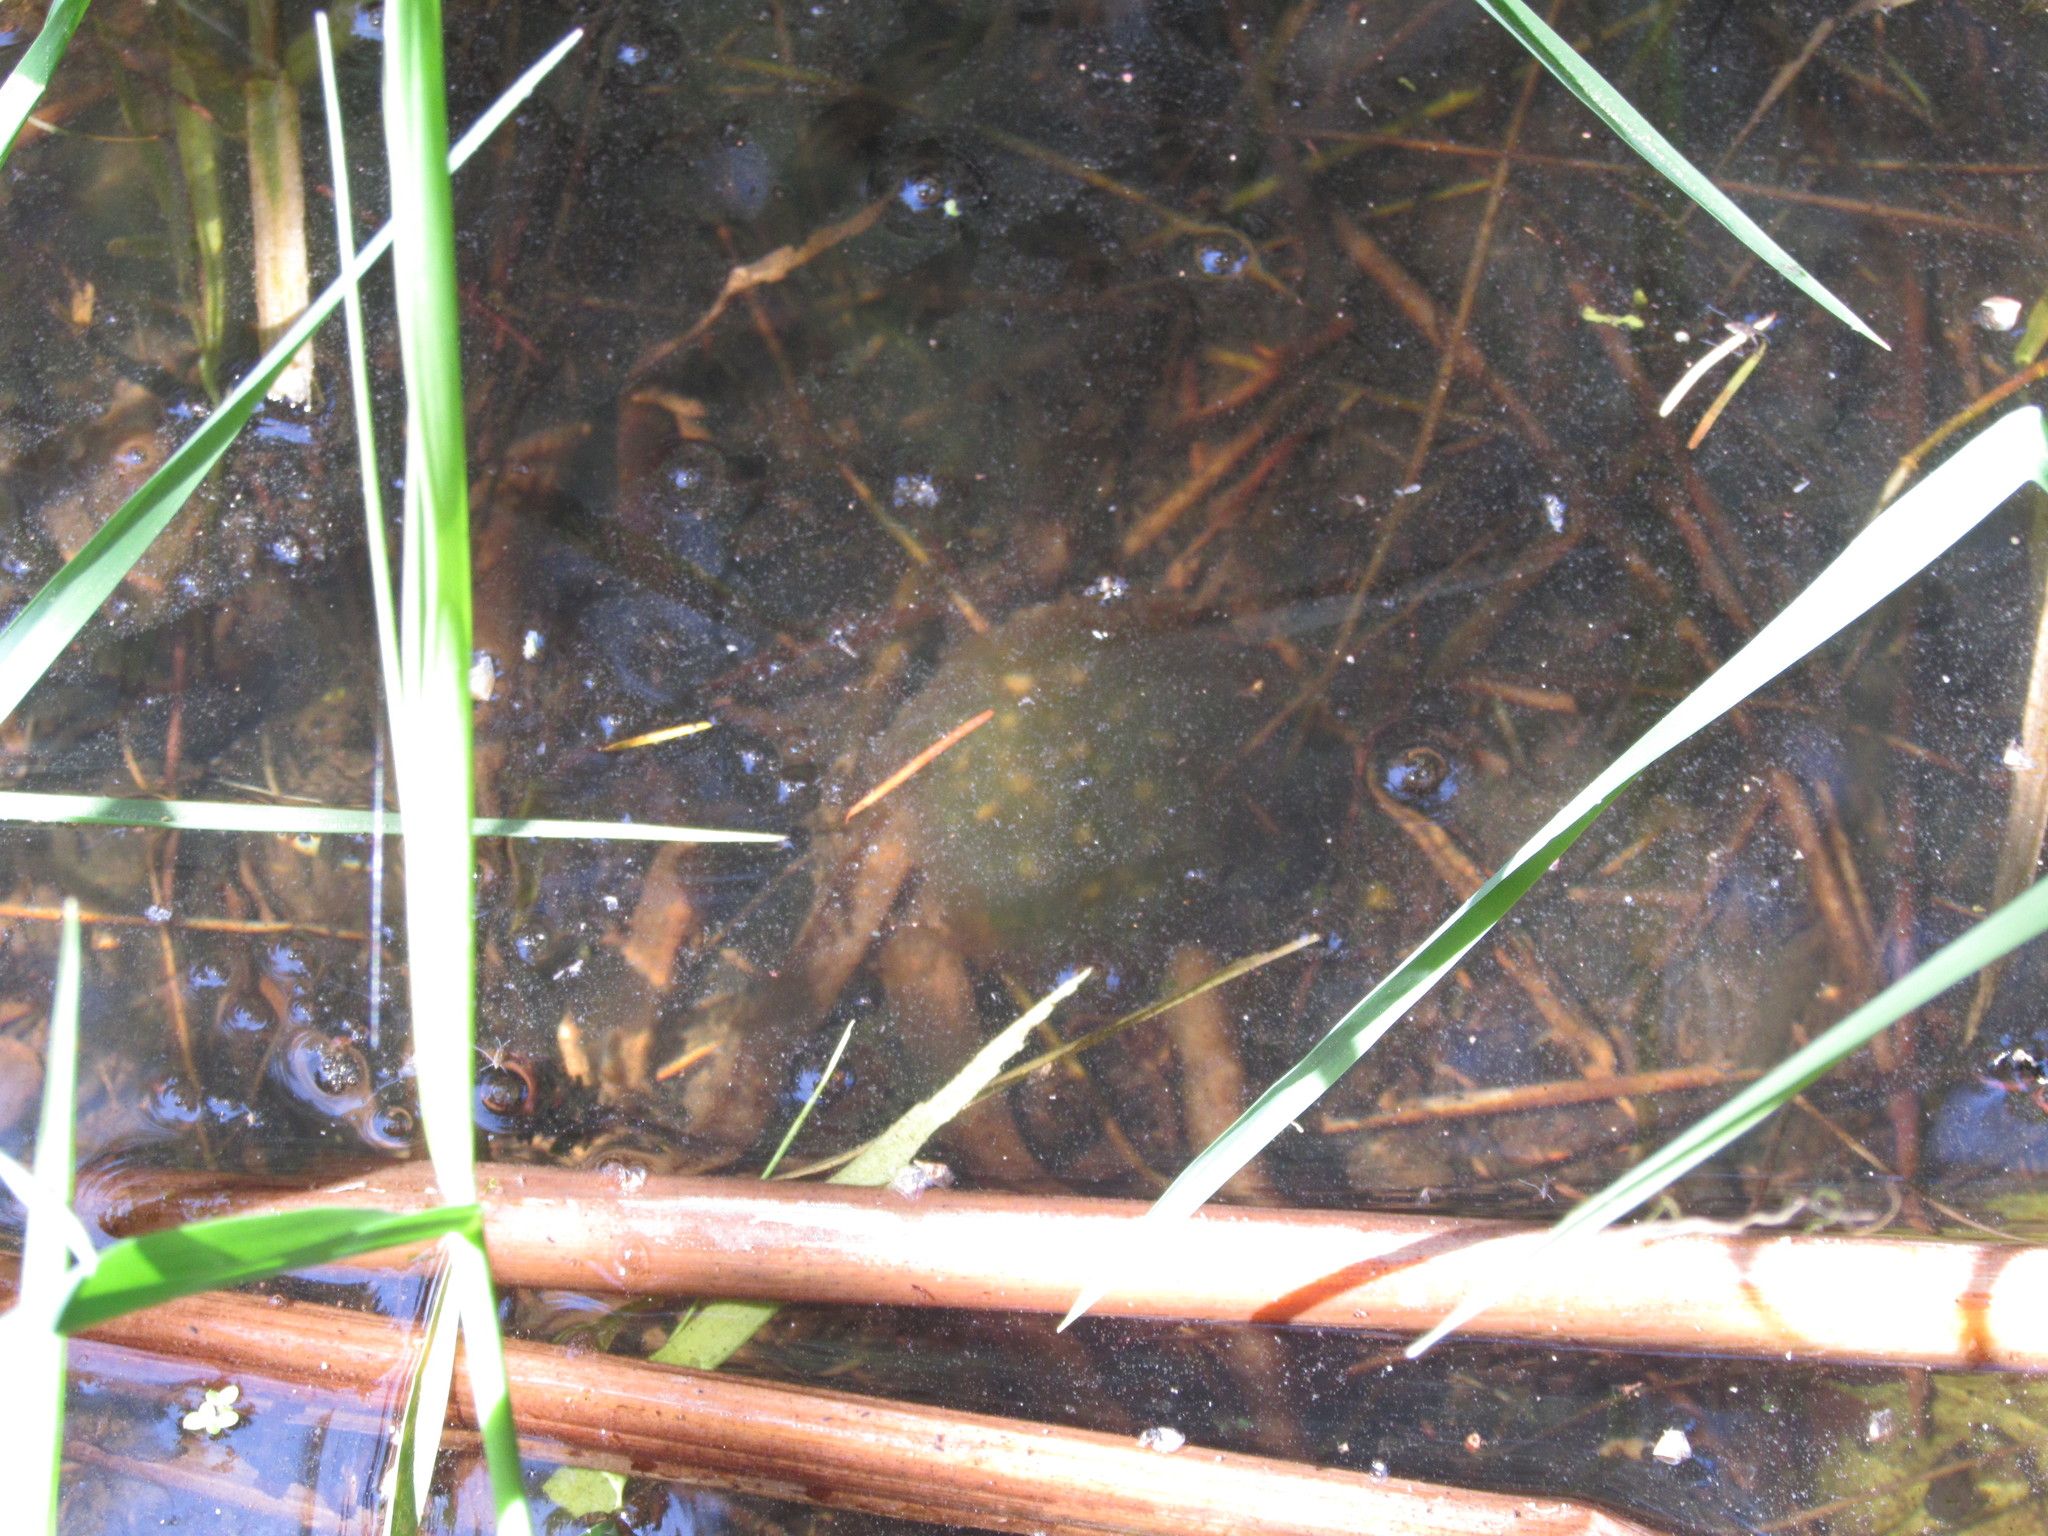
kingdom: Animalia
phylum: Chordata
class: Amphibia
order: Caudata
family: Ambystomatidae
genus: Ambystoma
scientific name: Ambystoma gracile
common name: Northwestern salamander
